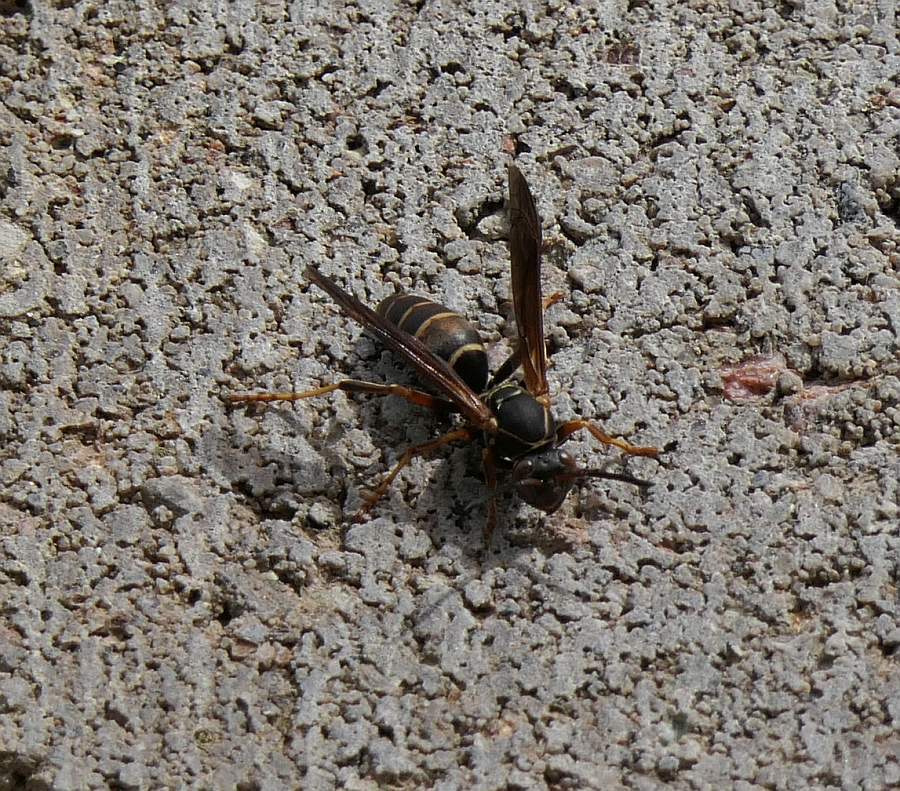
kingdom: Animalia
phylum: Arthropoda
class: Insecta
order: Hymenoptera
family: Eumenidae
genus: Polistes
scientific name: Polistes fuscatus
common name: Dark paper wasp
